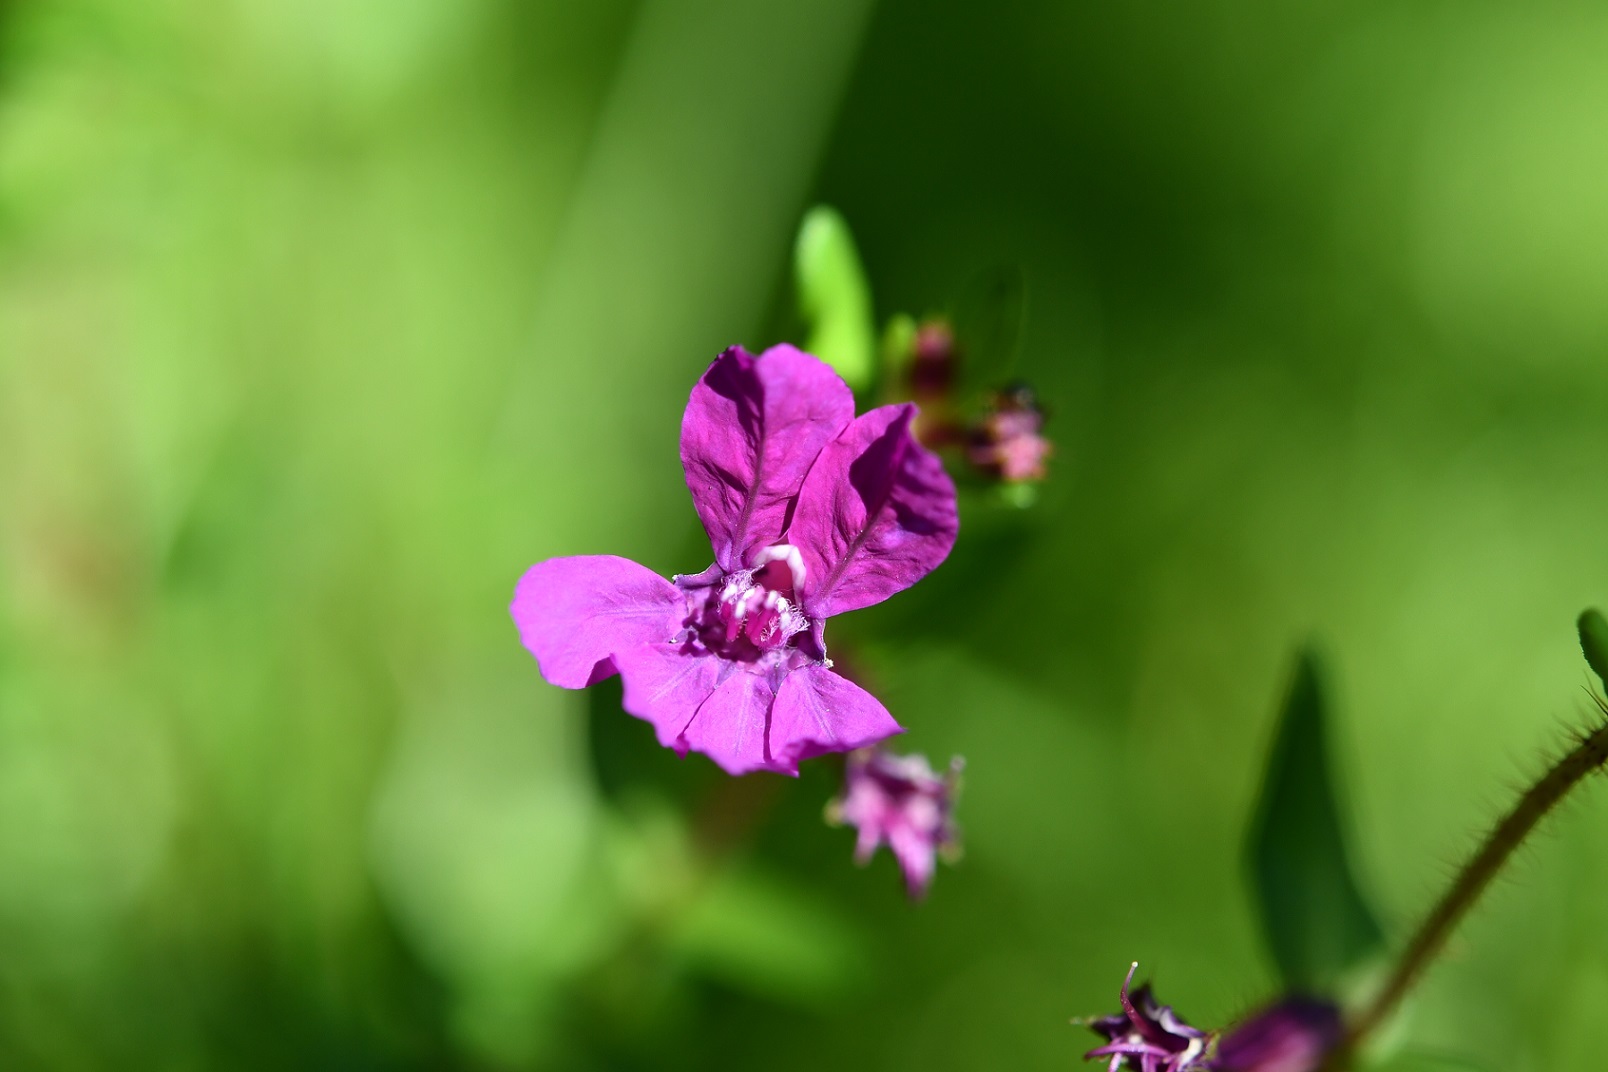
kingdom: Plantae
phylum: Tracheophyta
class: Magnoliopsida
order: Myrtales
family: Lythraceae
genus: Cuphea
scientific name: Cuphea aequipetala
